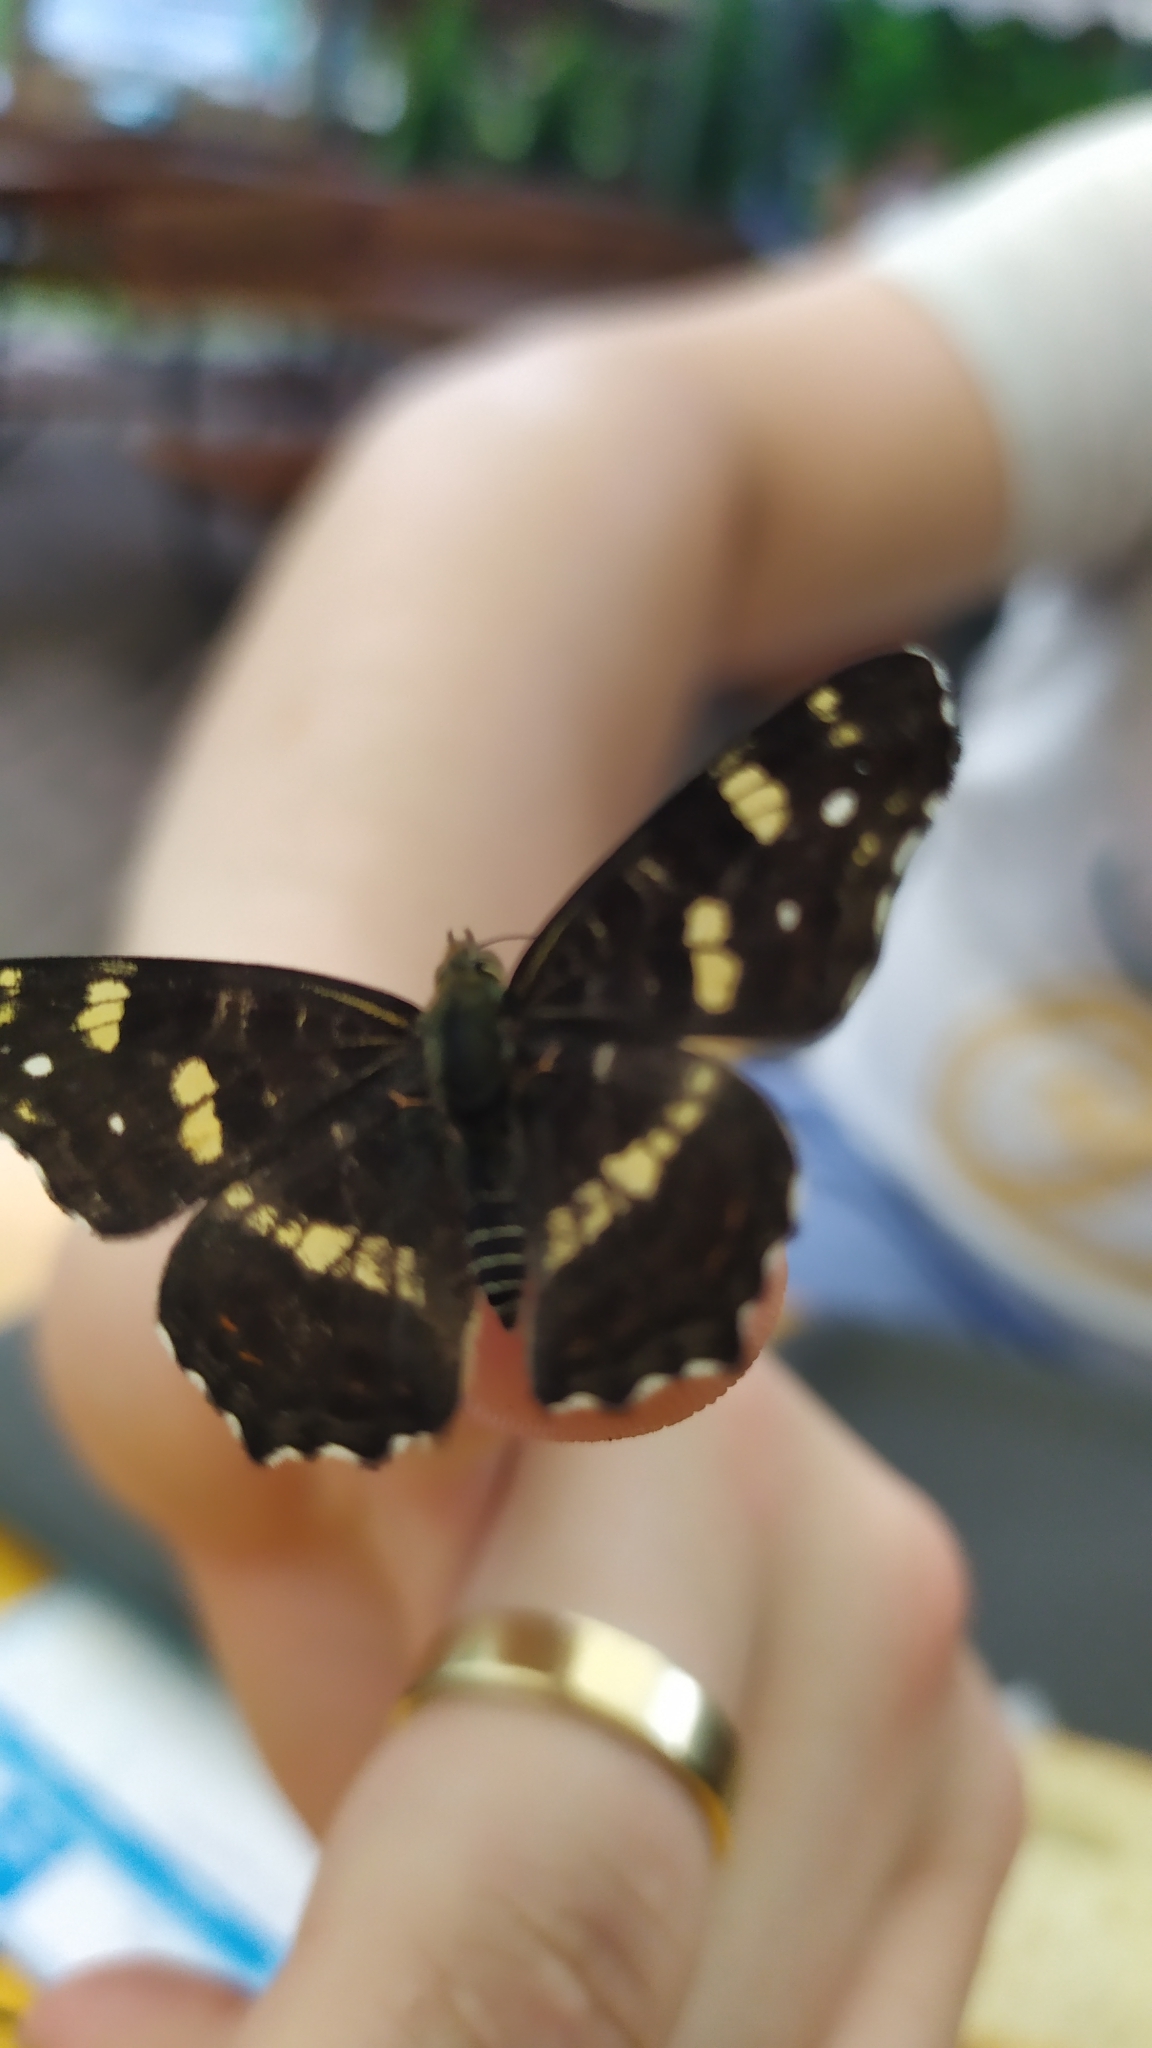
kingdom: Animalia
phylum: Arthropoda
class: Insecta
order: Lepidoptera
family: Nymphalidae
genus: Araschnia
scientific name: Araschnia levana
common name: Map butterfly
